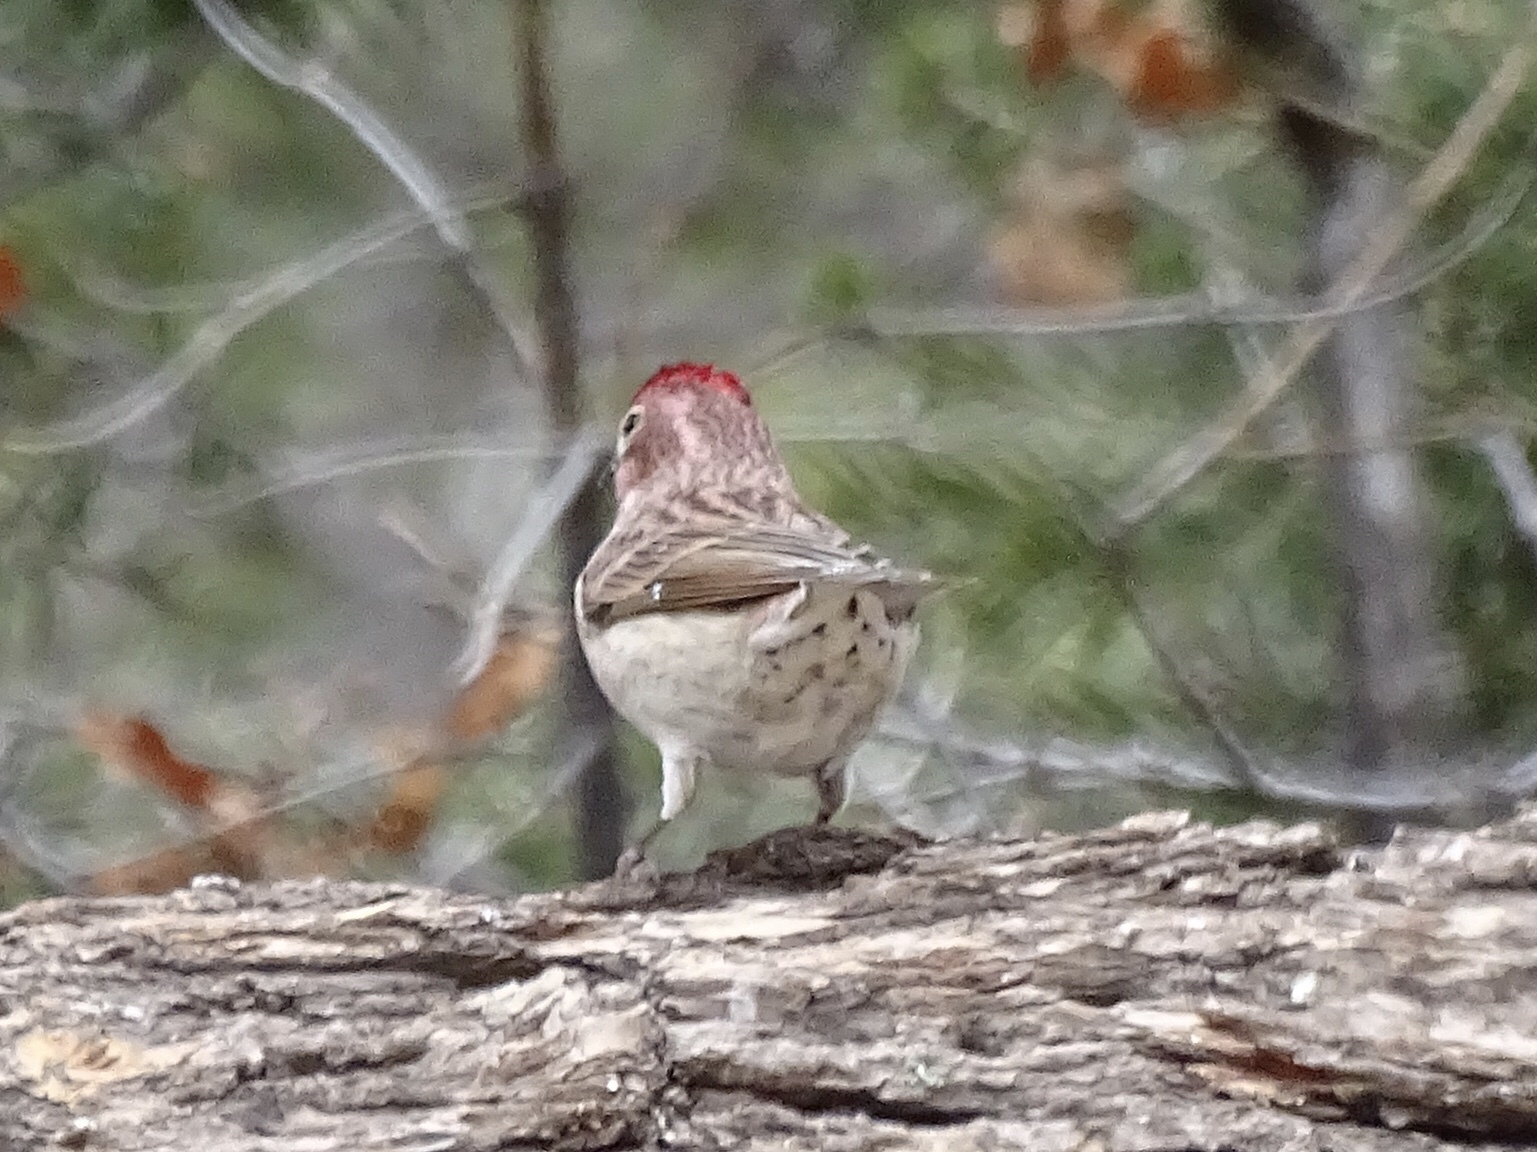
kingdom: Animalia
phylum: Chordata
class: Aves
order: Passeriformes
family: Fringillidae
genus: Haemorhous
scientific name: Haemorhous cassinii
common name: Cassin's finch
